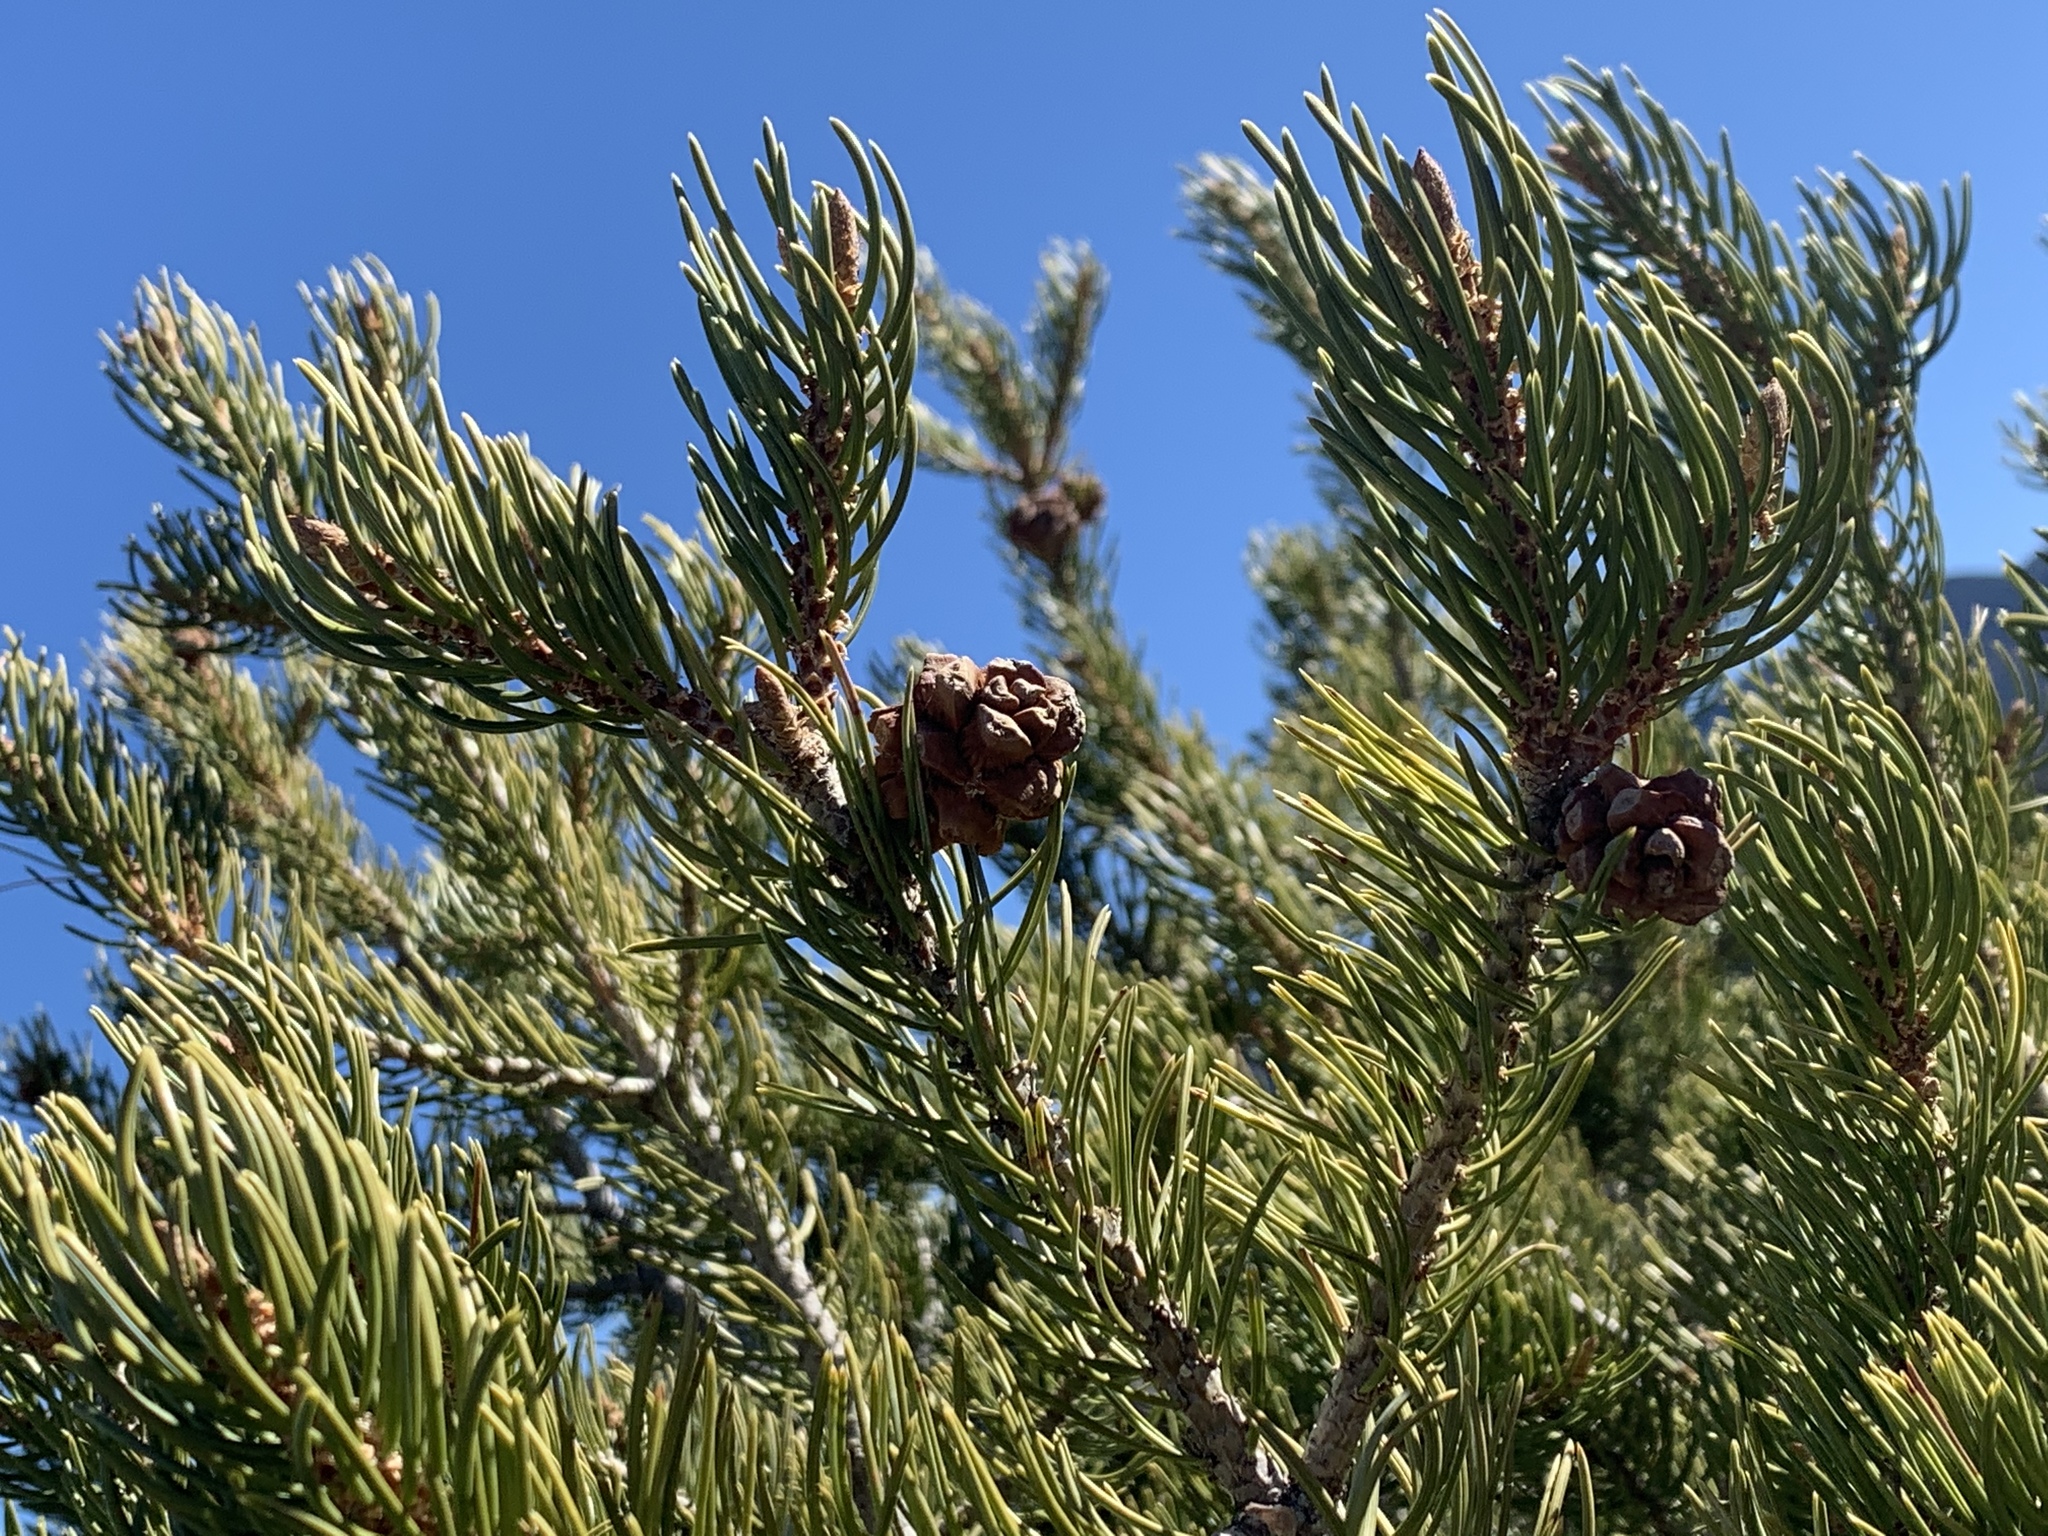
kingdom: Plantae
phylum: Tracheophyta
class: Pinopsida
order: Pinales
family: Pinaceae
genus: Pinus
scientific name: Pinus edulis
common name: Colorado pinyon
